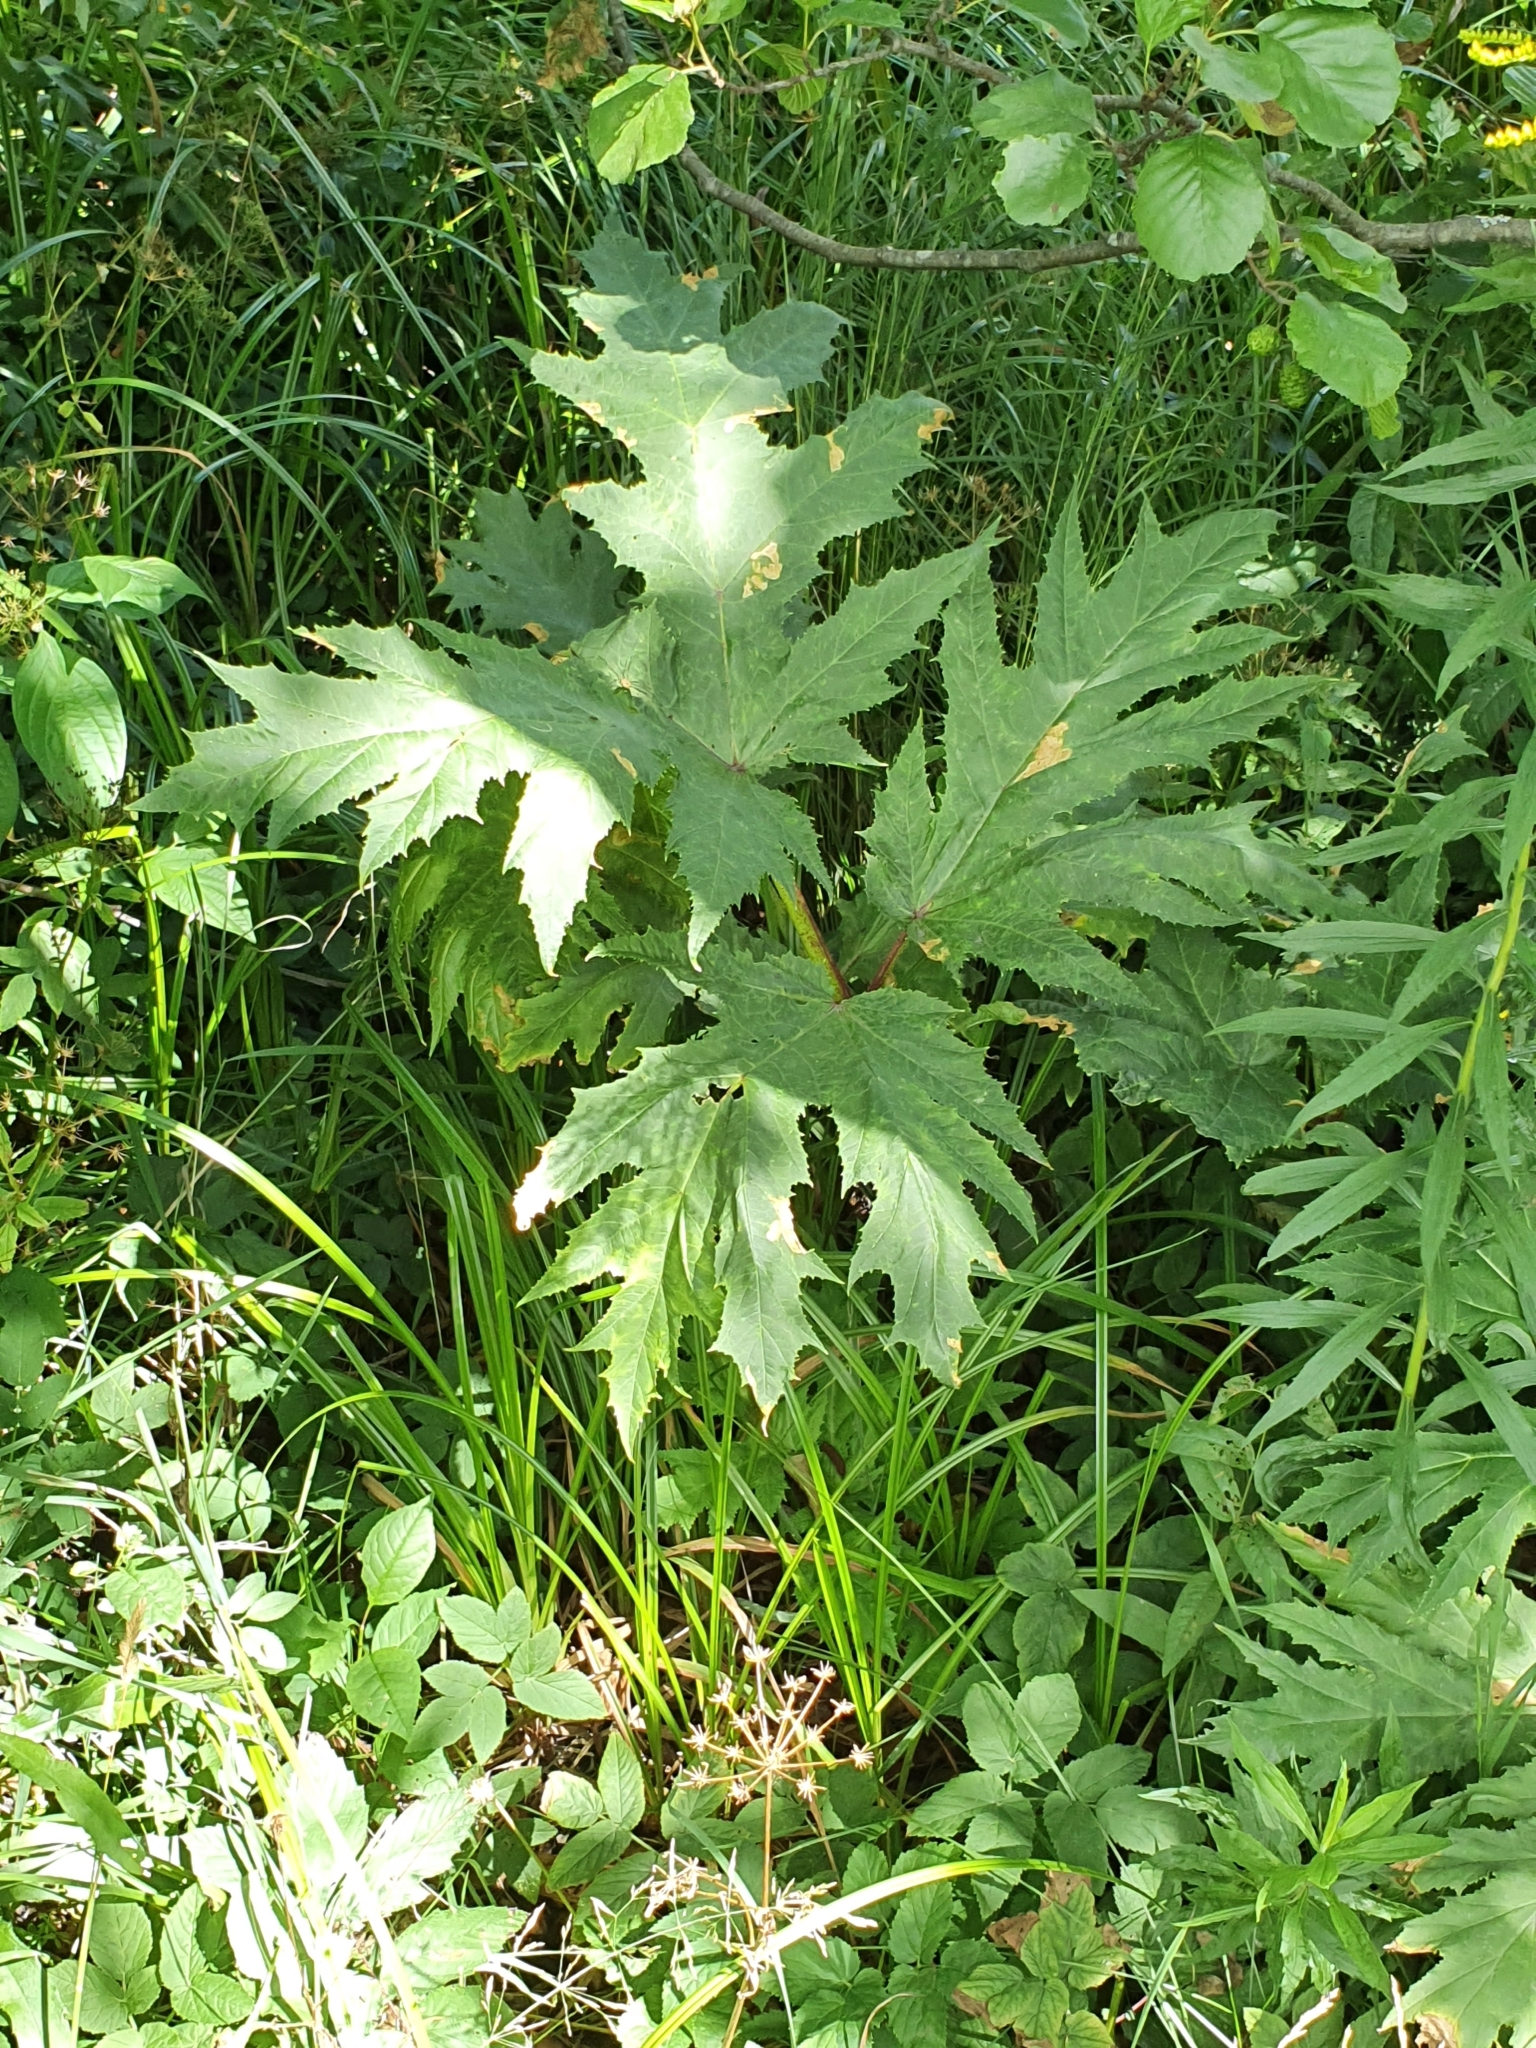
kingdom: Plantae
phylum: Tracheophyta
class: Magnoliopsida
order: Apiales
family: Apiaceae
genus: Heracleum
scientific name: Heracleum mantegazzianum
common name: Giant hogweed
